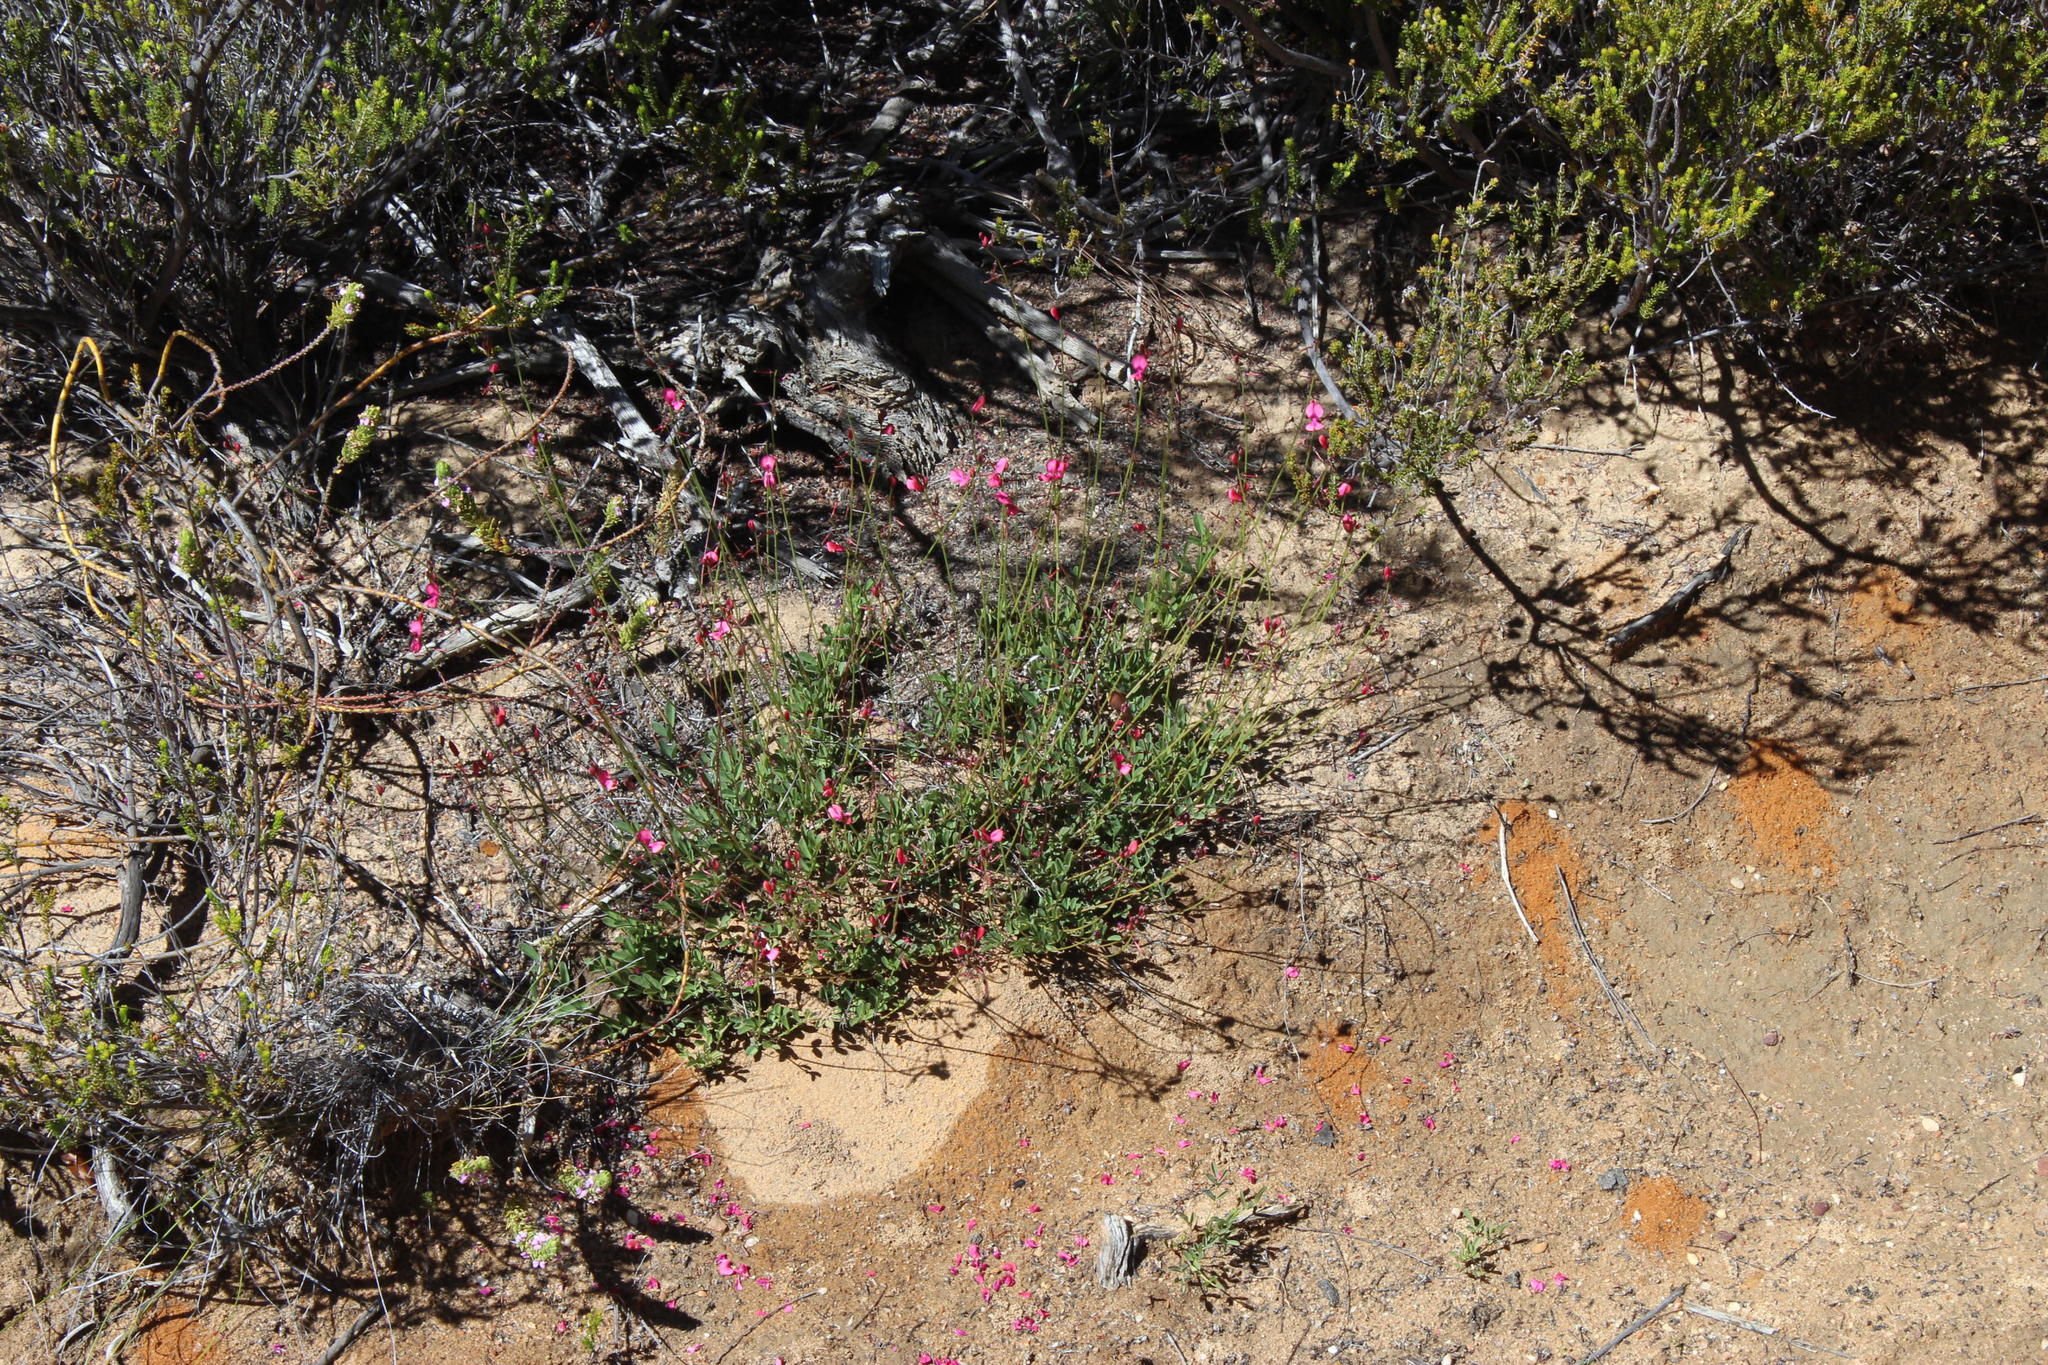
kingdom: Plantae
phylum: Tracheophyta
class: Magnoliopsida
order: Fabales
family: Fabaceae
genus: Indigofera
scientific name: Indigofera capillaris
